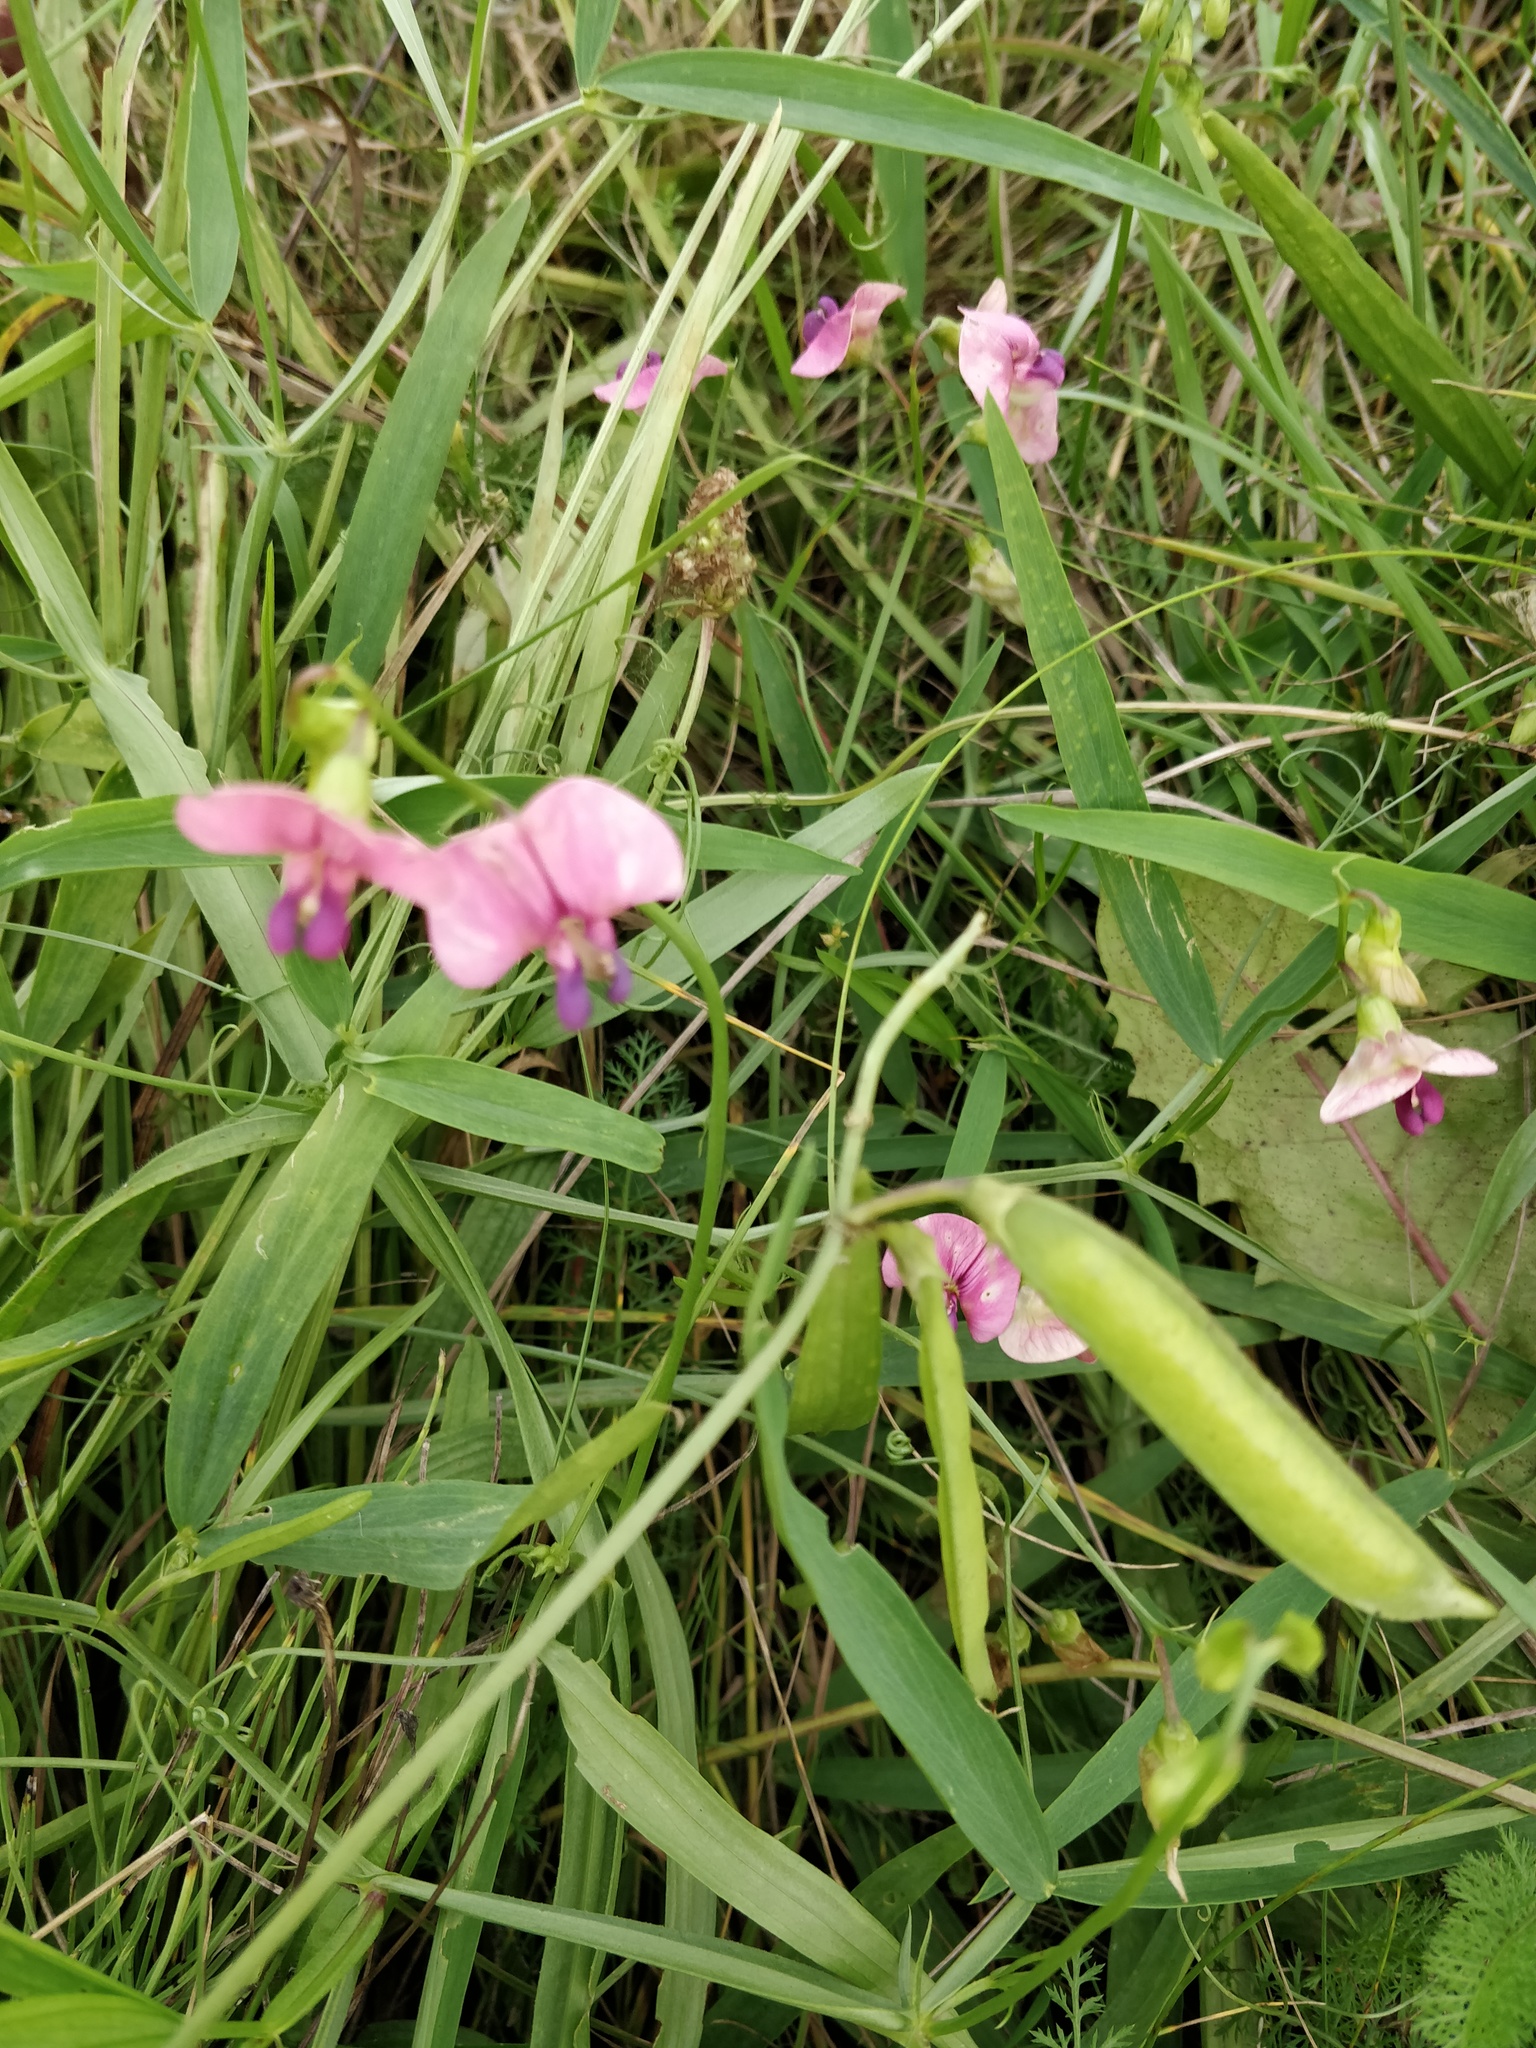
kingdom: Plantae
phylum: Tracheophyta
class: Magnoliopsida
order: Fabales
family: Fabaceae
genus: Lathyrus
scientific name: Lathyrus sylvestris
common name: Flat pea
